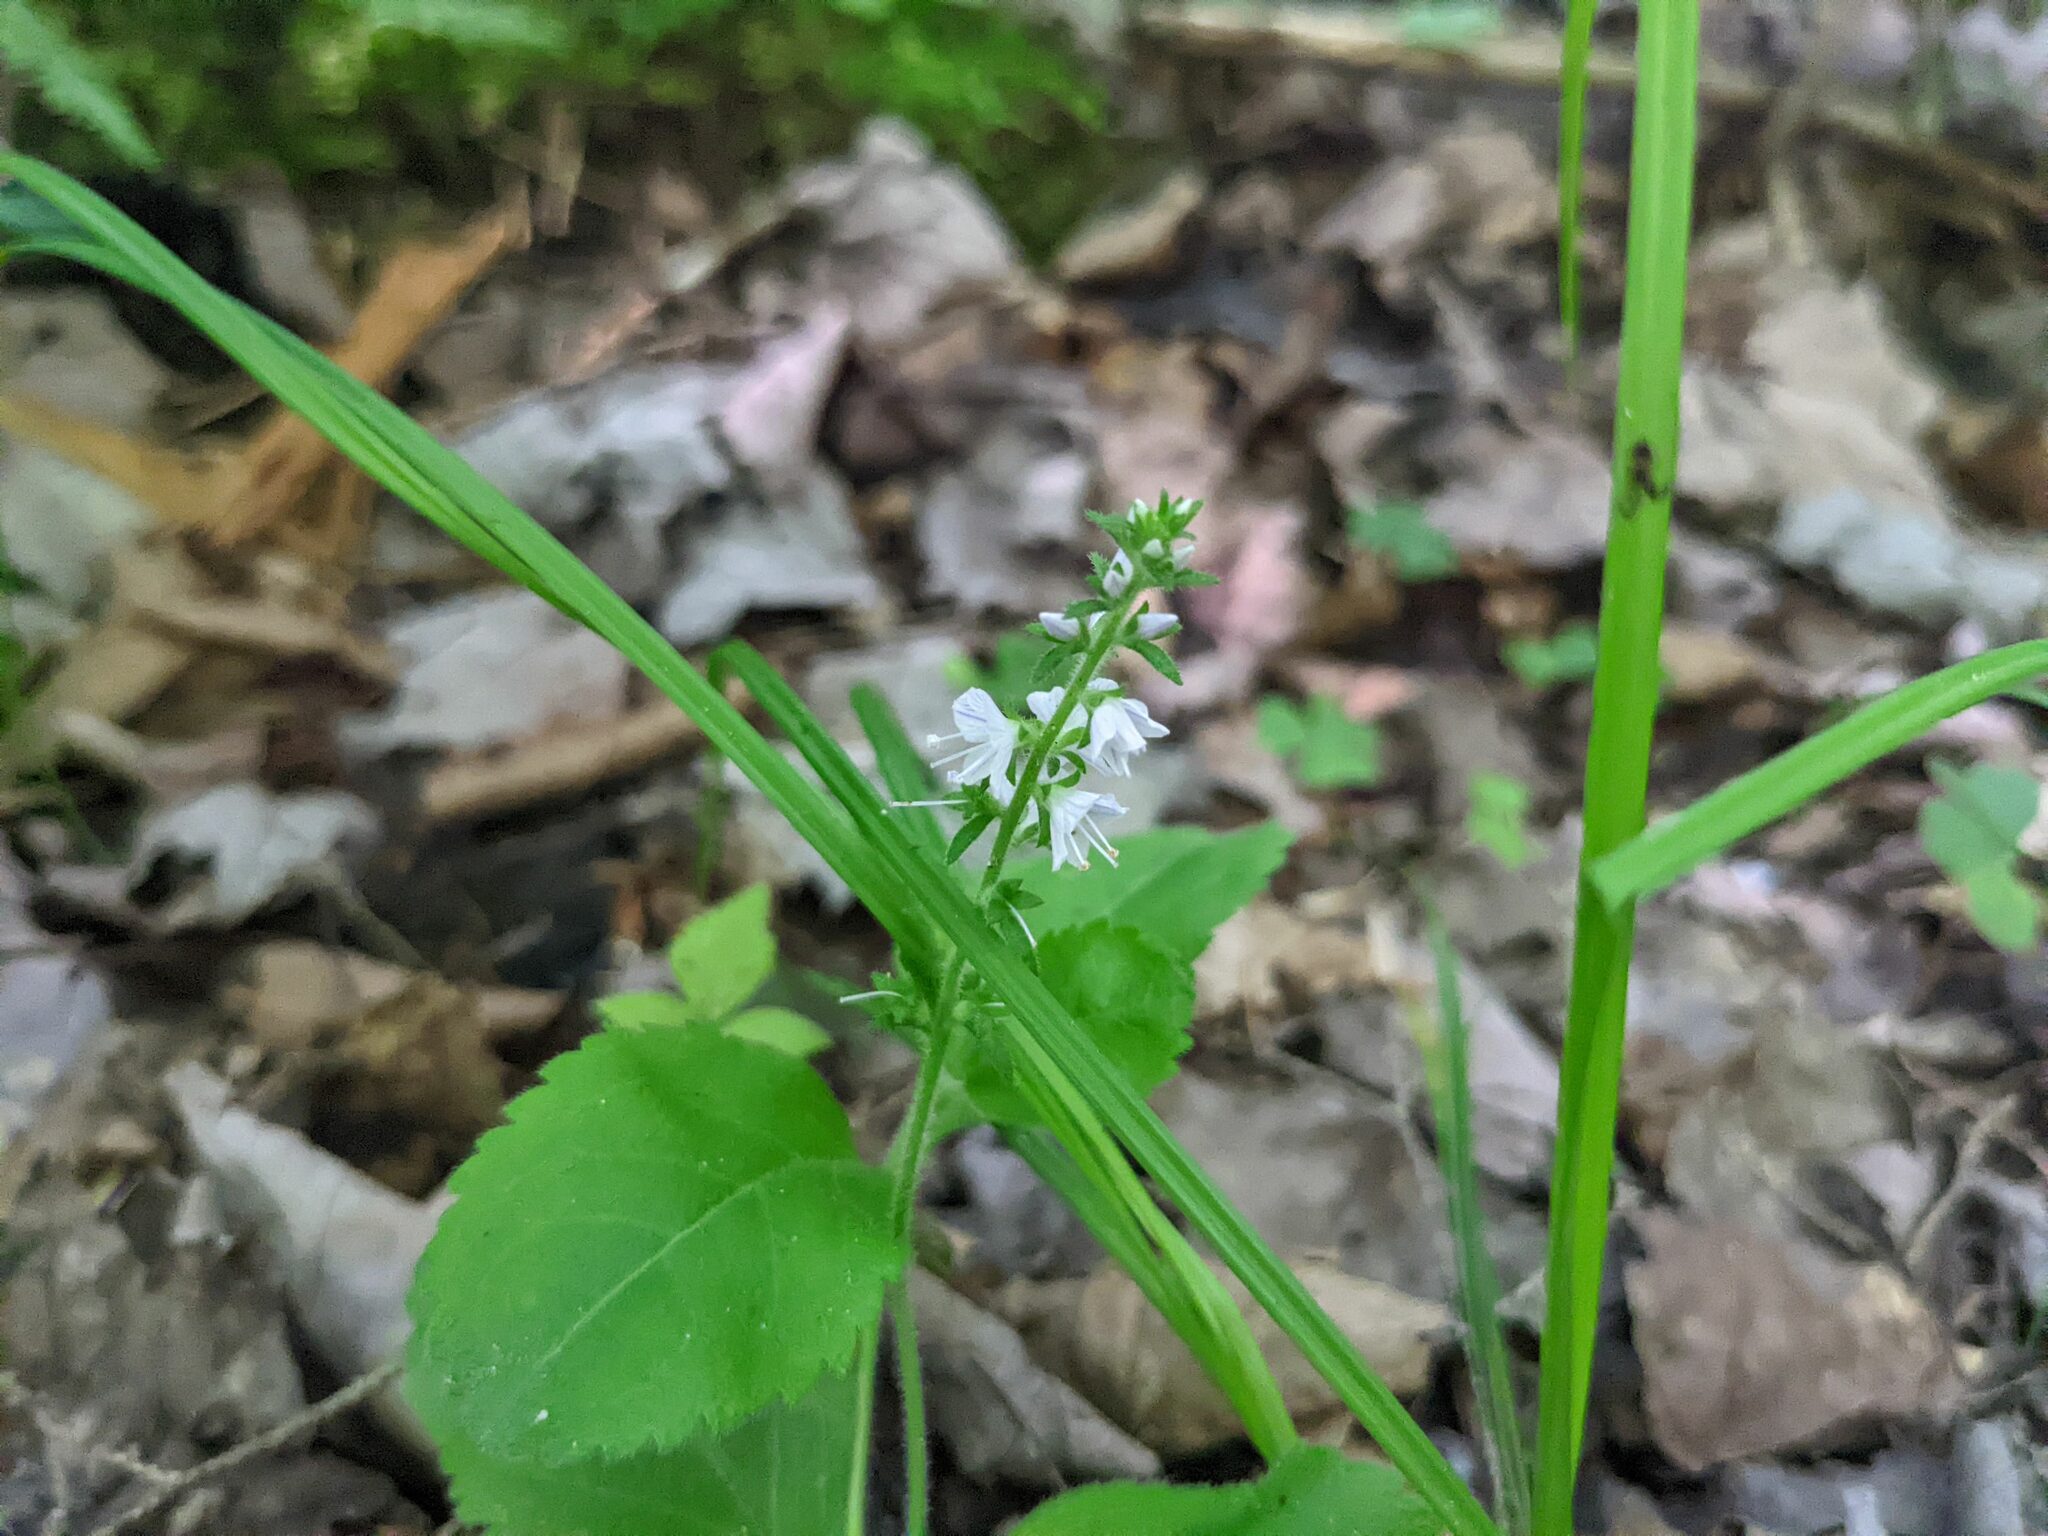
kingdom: Plantae
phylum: Tracheophyta
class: Magnoliopsida
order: Lamiales
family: Plantaginaceae
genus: Veronica
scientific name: Veronica officinalis
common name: Common speedwell
